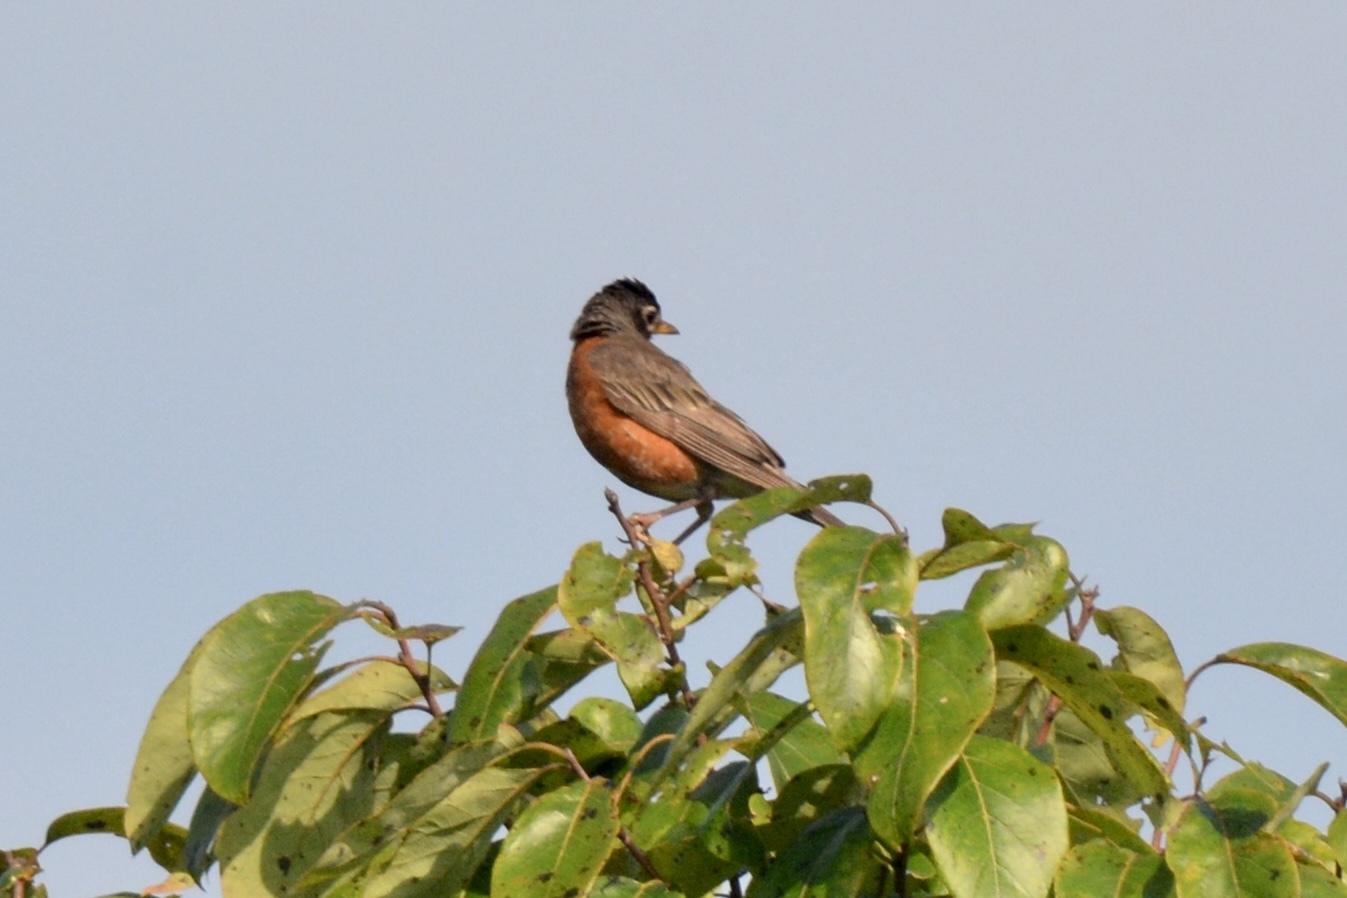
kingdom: Animalia
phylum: Chordata
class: Aves
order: Passeriformes
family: Turdidae
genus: Turdus
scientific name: Turdus migratorius
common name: American robin
